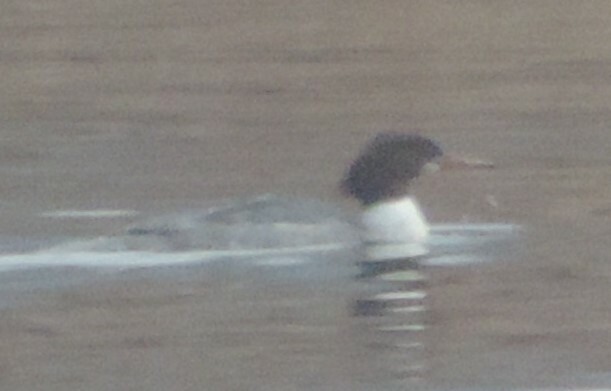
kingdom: Animalia
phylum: Chordata
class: Aves
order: Anseriformes
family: Anatidae
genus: Mergus
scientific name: Mergus merganser
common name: Common merganser
